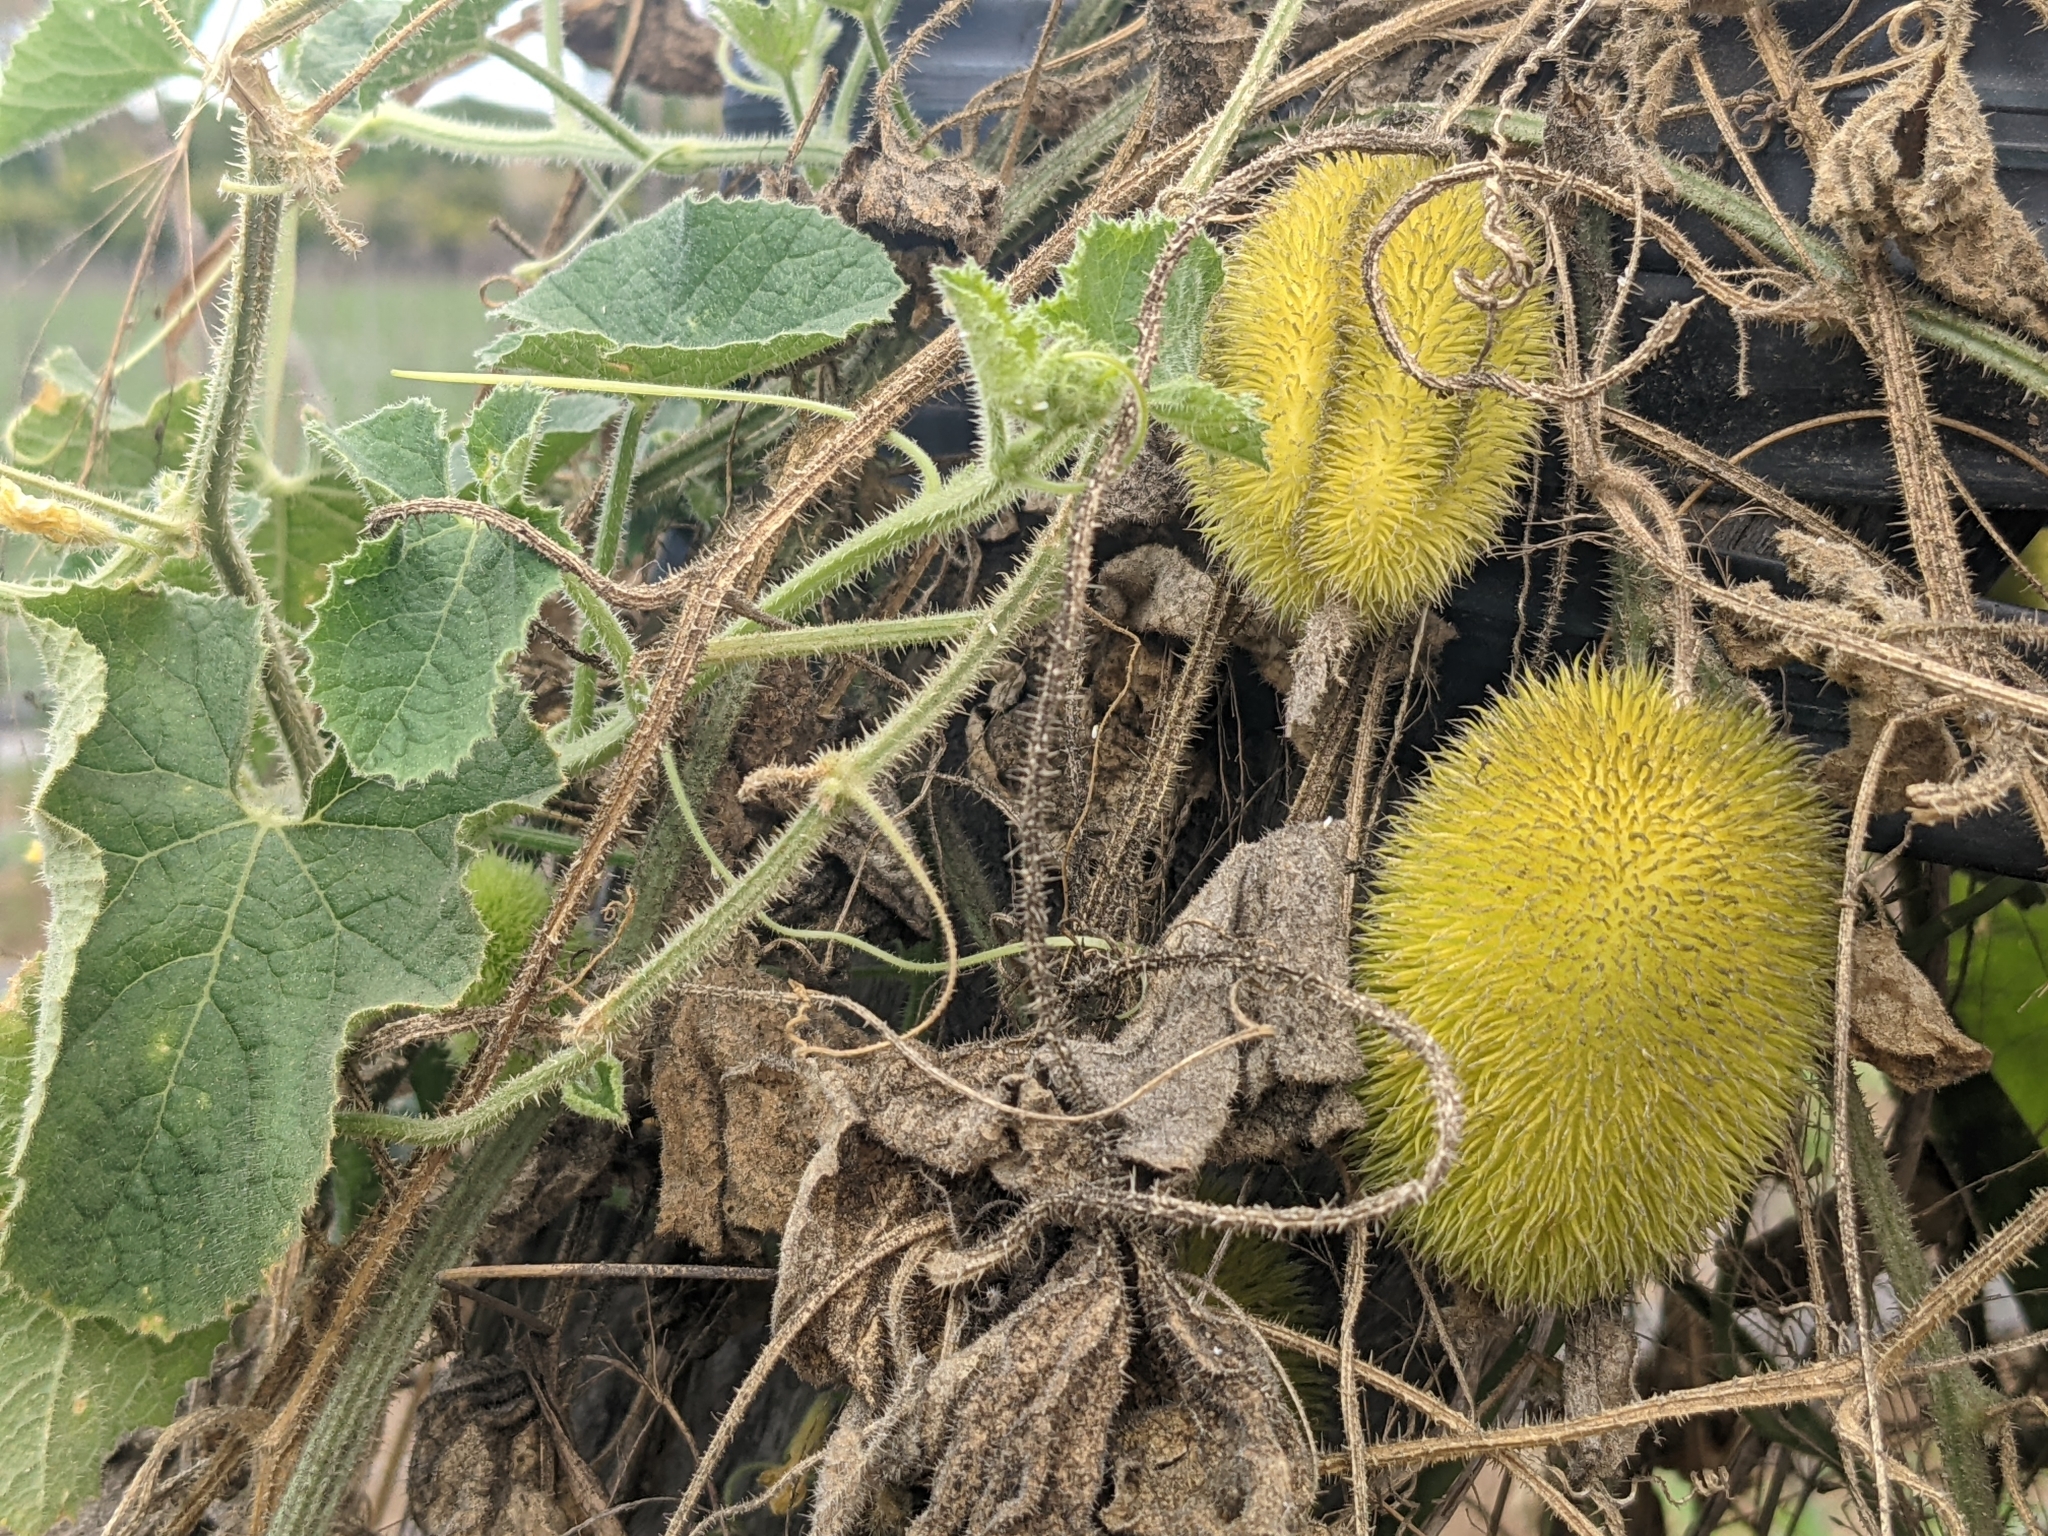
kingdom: Plantae
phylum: Tracheophyta
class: Magnoliopsida
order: Cucurbitales
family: Cucurbitaceae
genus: Cucumis
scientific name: Cucumis dipsaceus
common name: Hedgehog gourd
